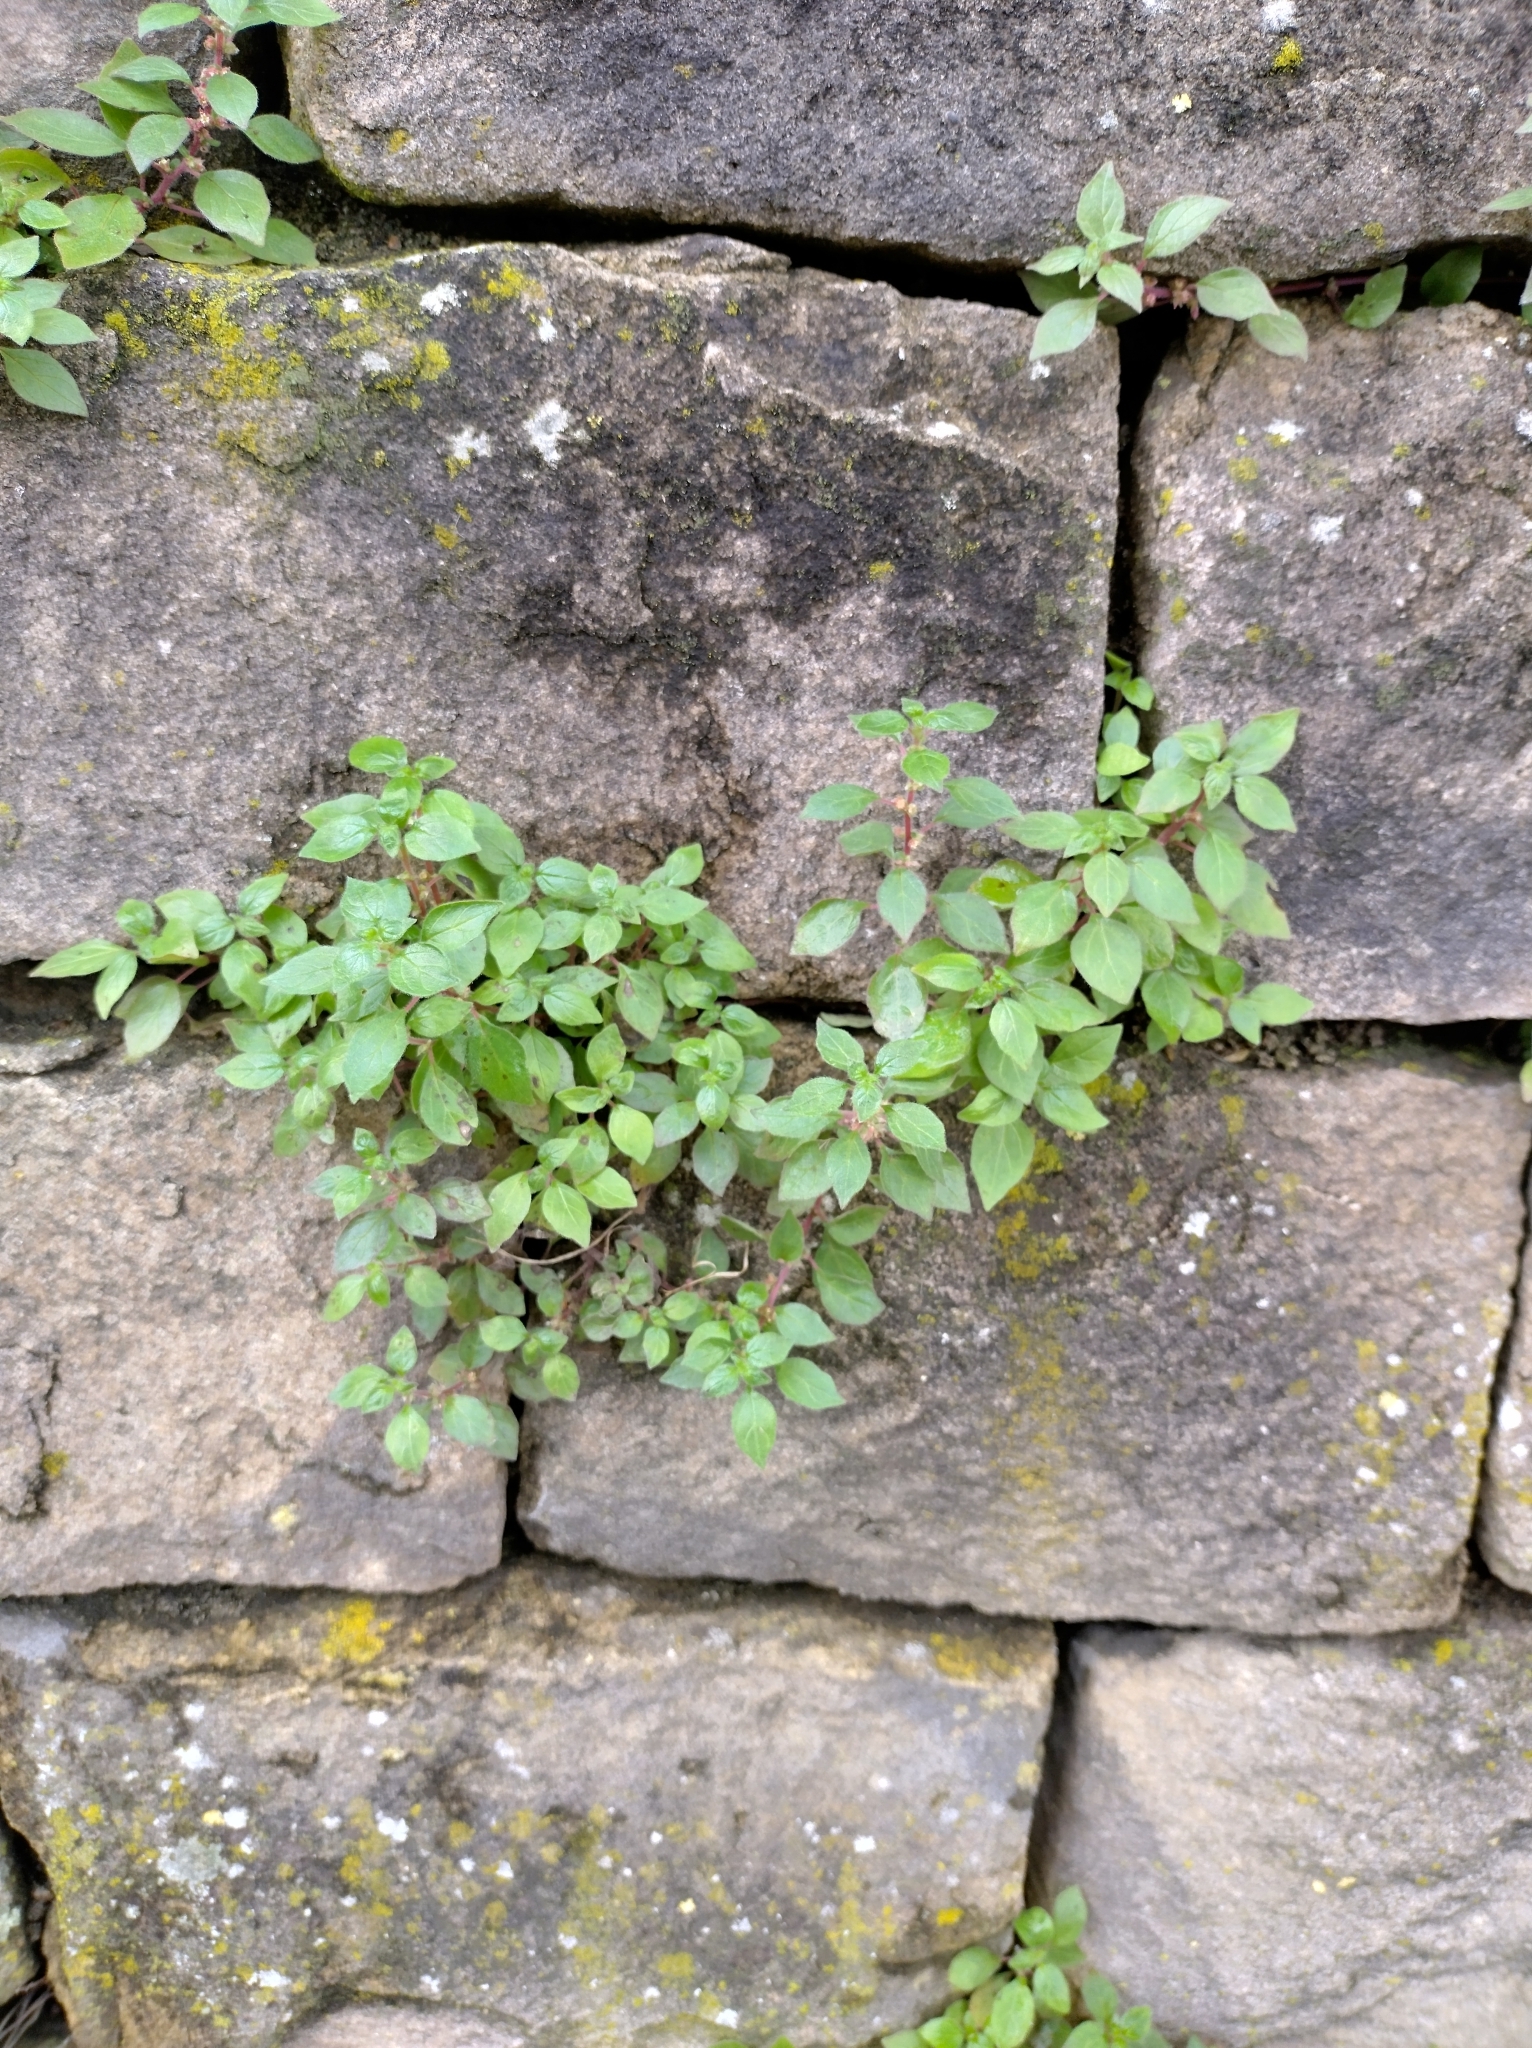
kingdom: Plantae
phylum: Tracheophyta
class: Magnoliopsida
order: Rosales
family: Urticaceae
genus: Parietaria
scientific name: Parietaria judaica
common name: Pellitory-of-the-wall
